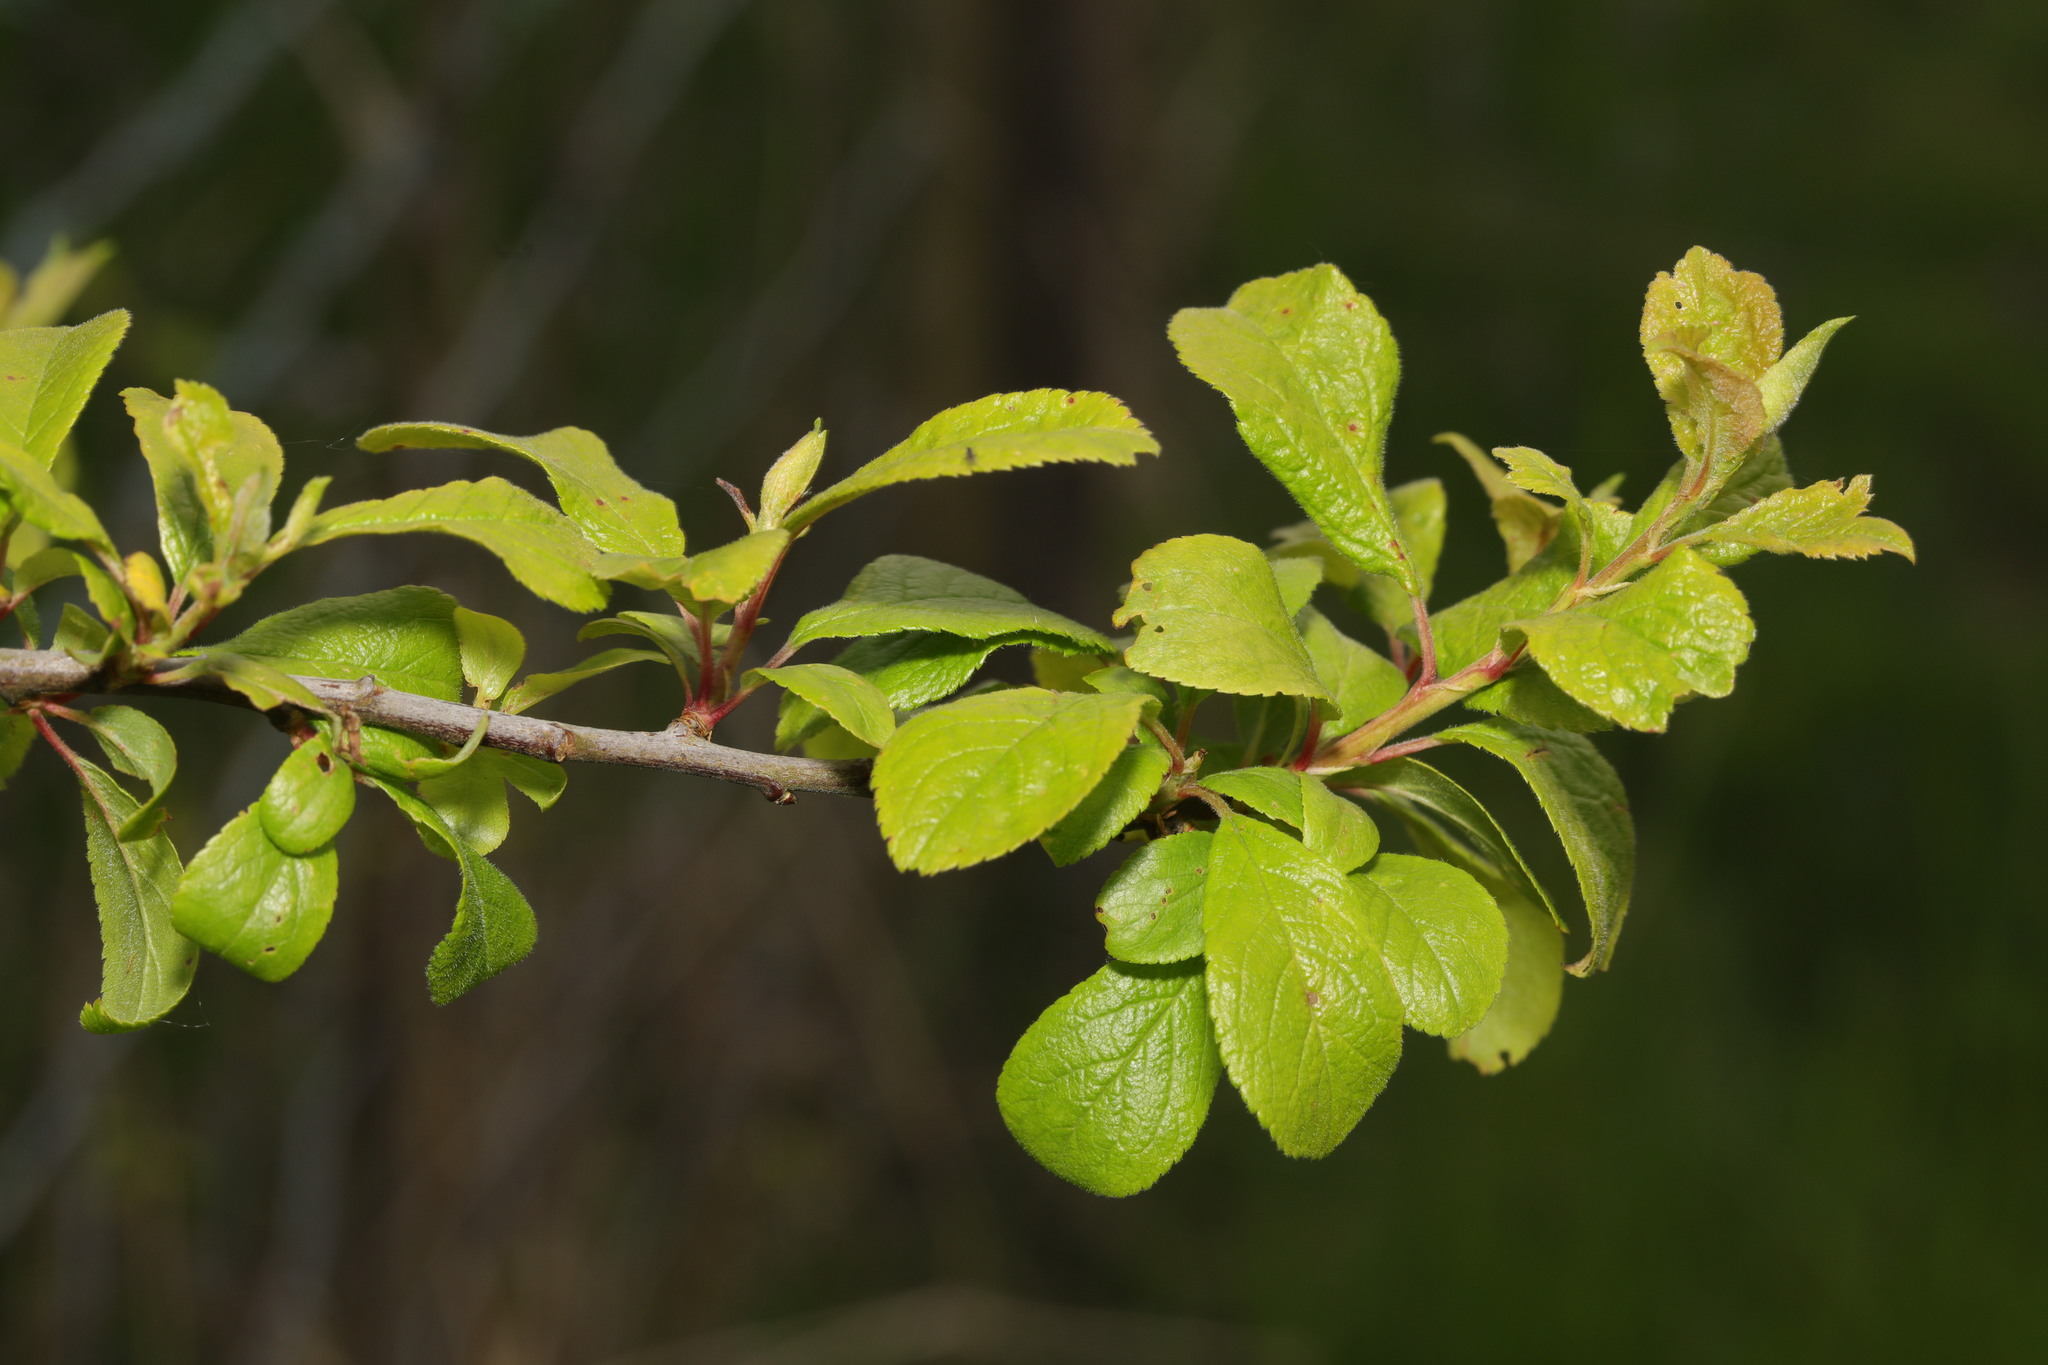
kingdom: Plantae
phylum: Tracheophyta
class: Magnoliopsida
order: Rosales
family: Rosaceae
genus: Prunus
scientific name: Prunus spinosa
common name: Blackthorn
